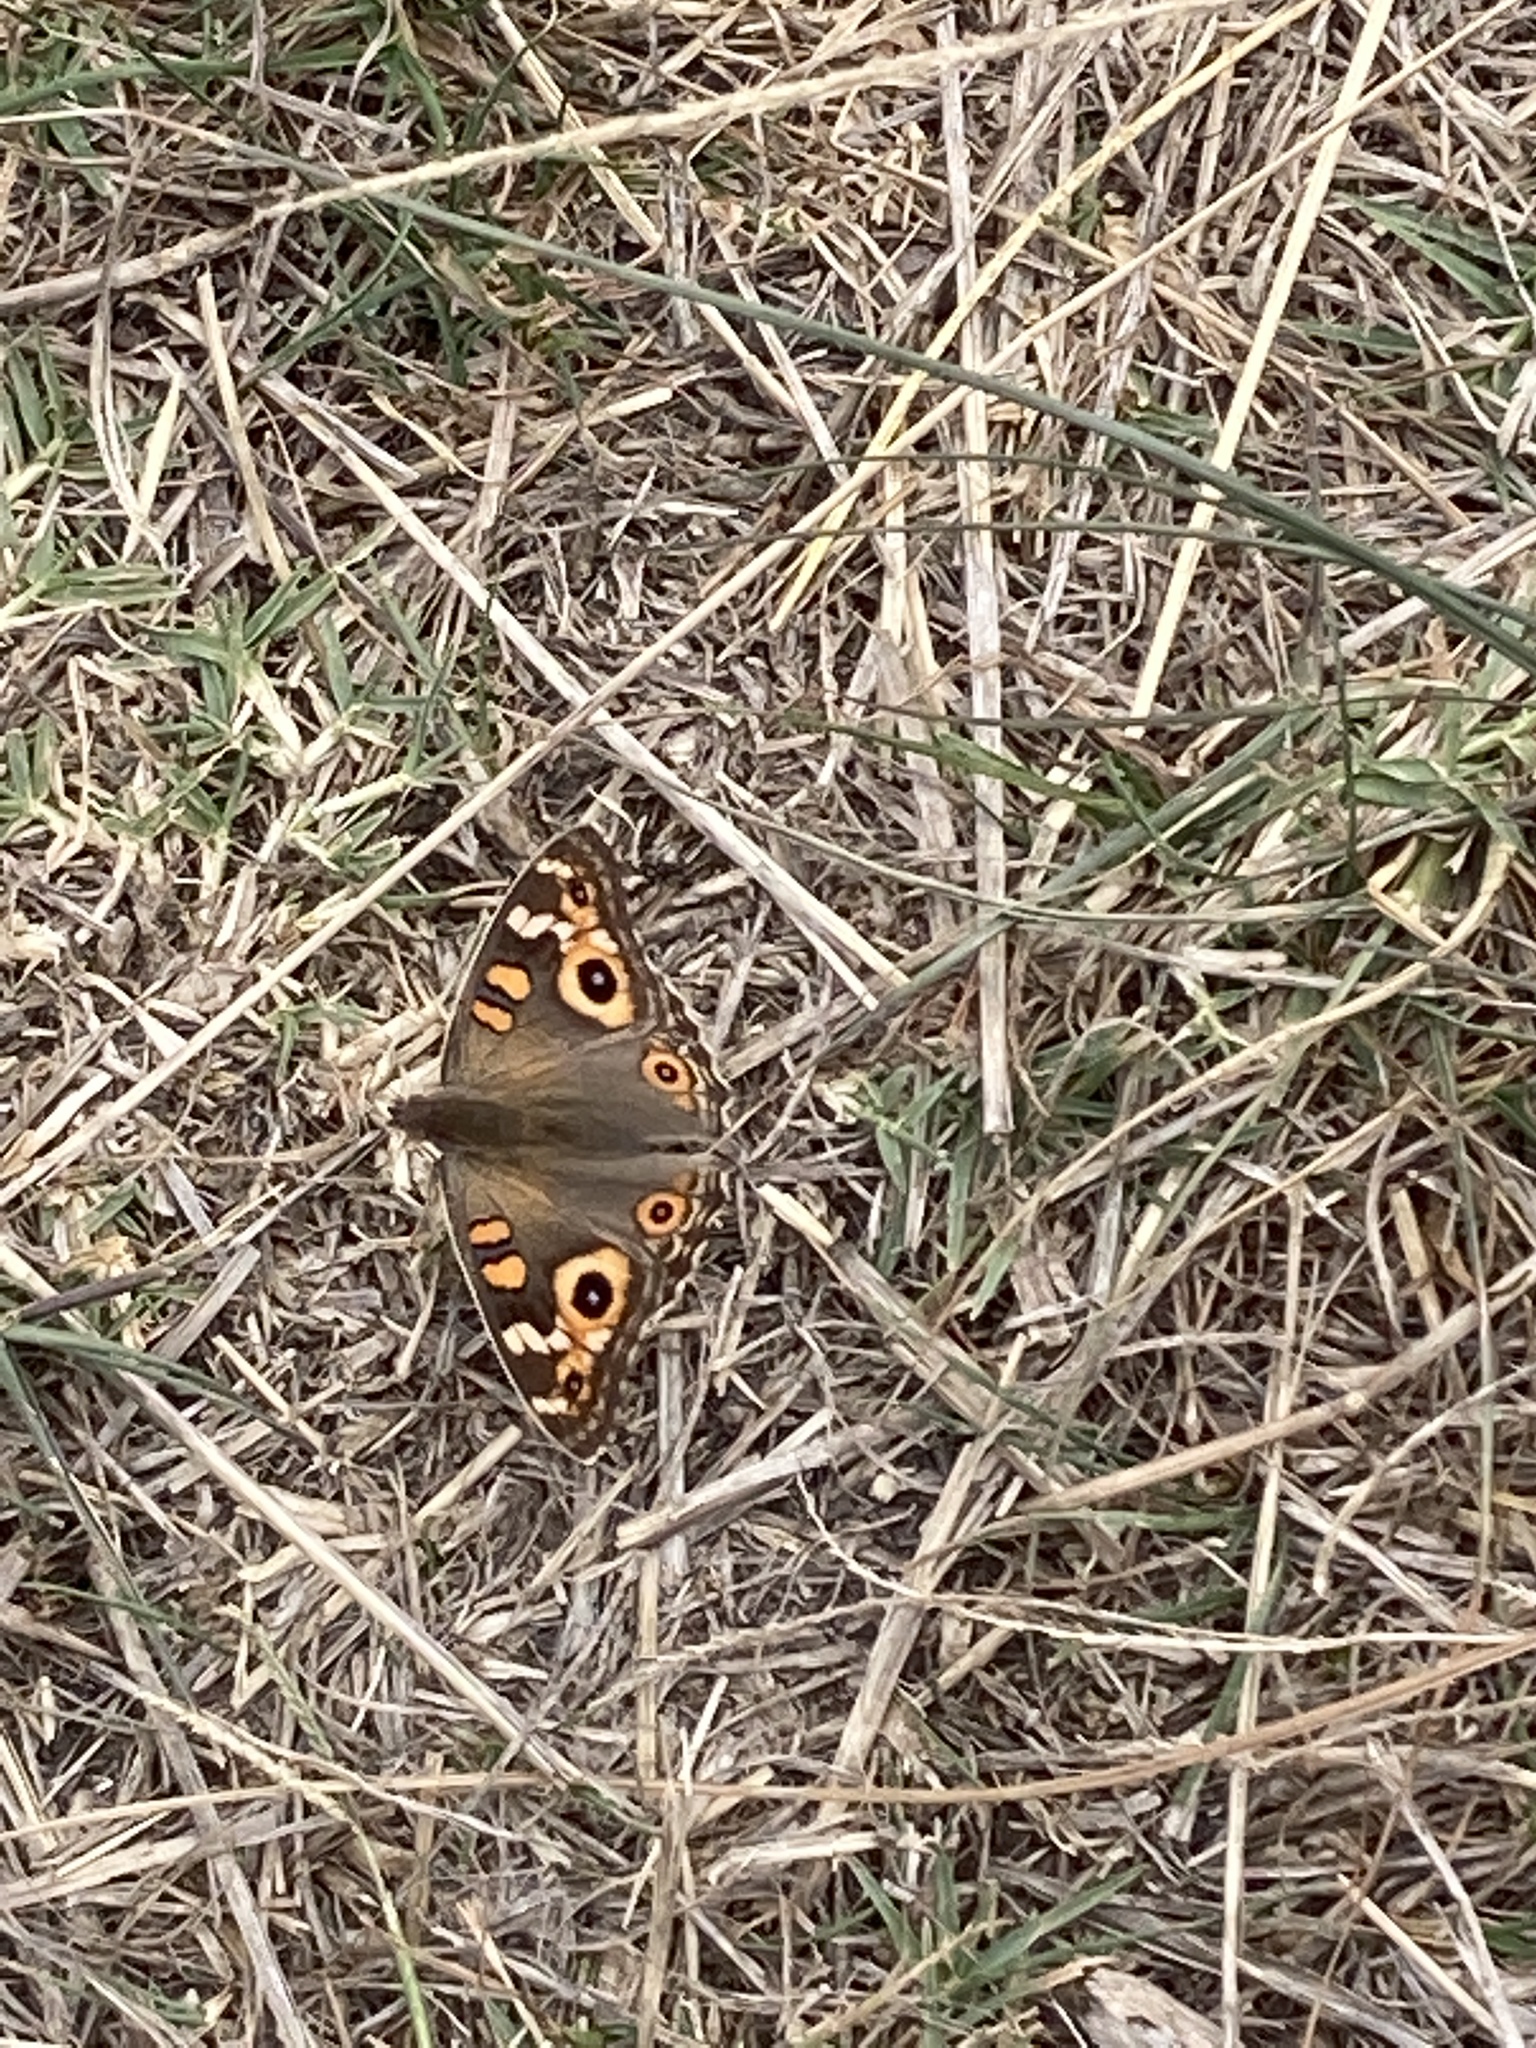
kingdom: Animalia
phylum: Arthropoda
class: Insecta
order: Lepidoptera
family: Nymphalidae
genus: Junonia
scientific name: Junonia villida
